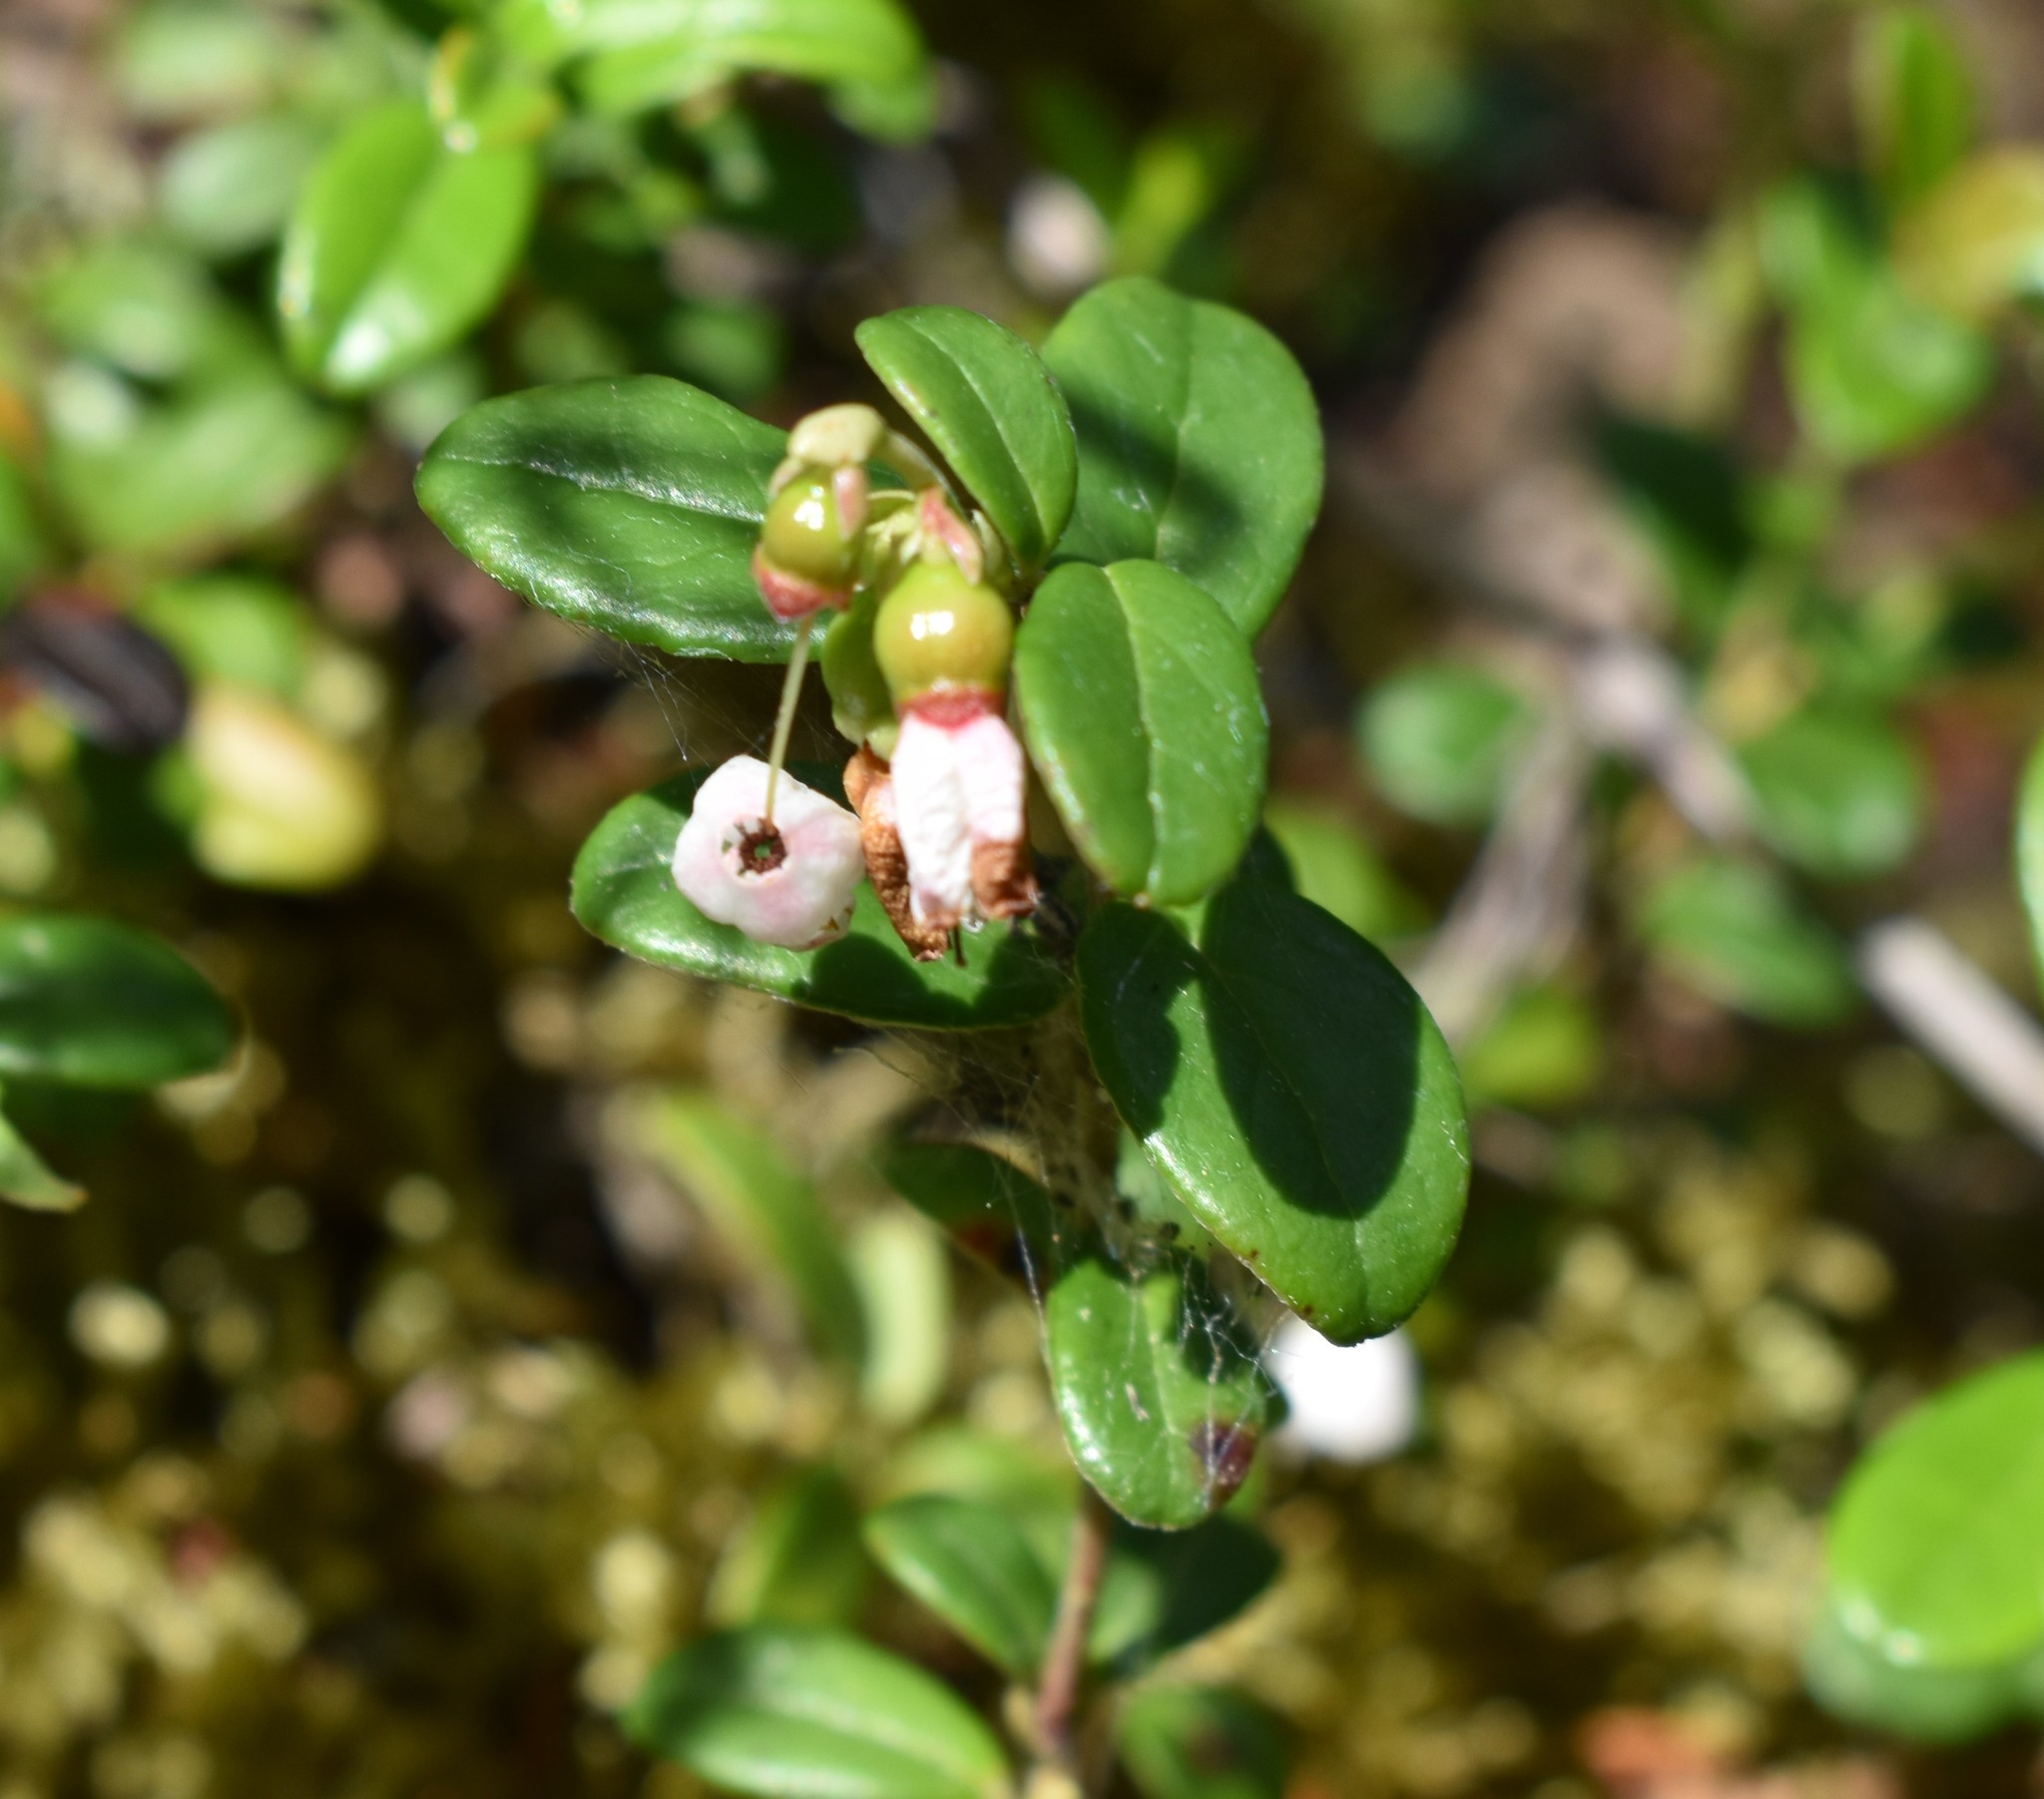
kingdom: Plantae
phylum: Tracheophyta
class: Magnoliopsida
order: Ericales
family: Ericaceae
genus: Vaccinium
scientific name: Vaccinium vitis-idaea
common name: Cowberry
